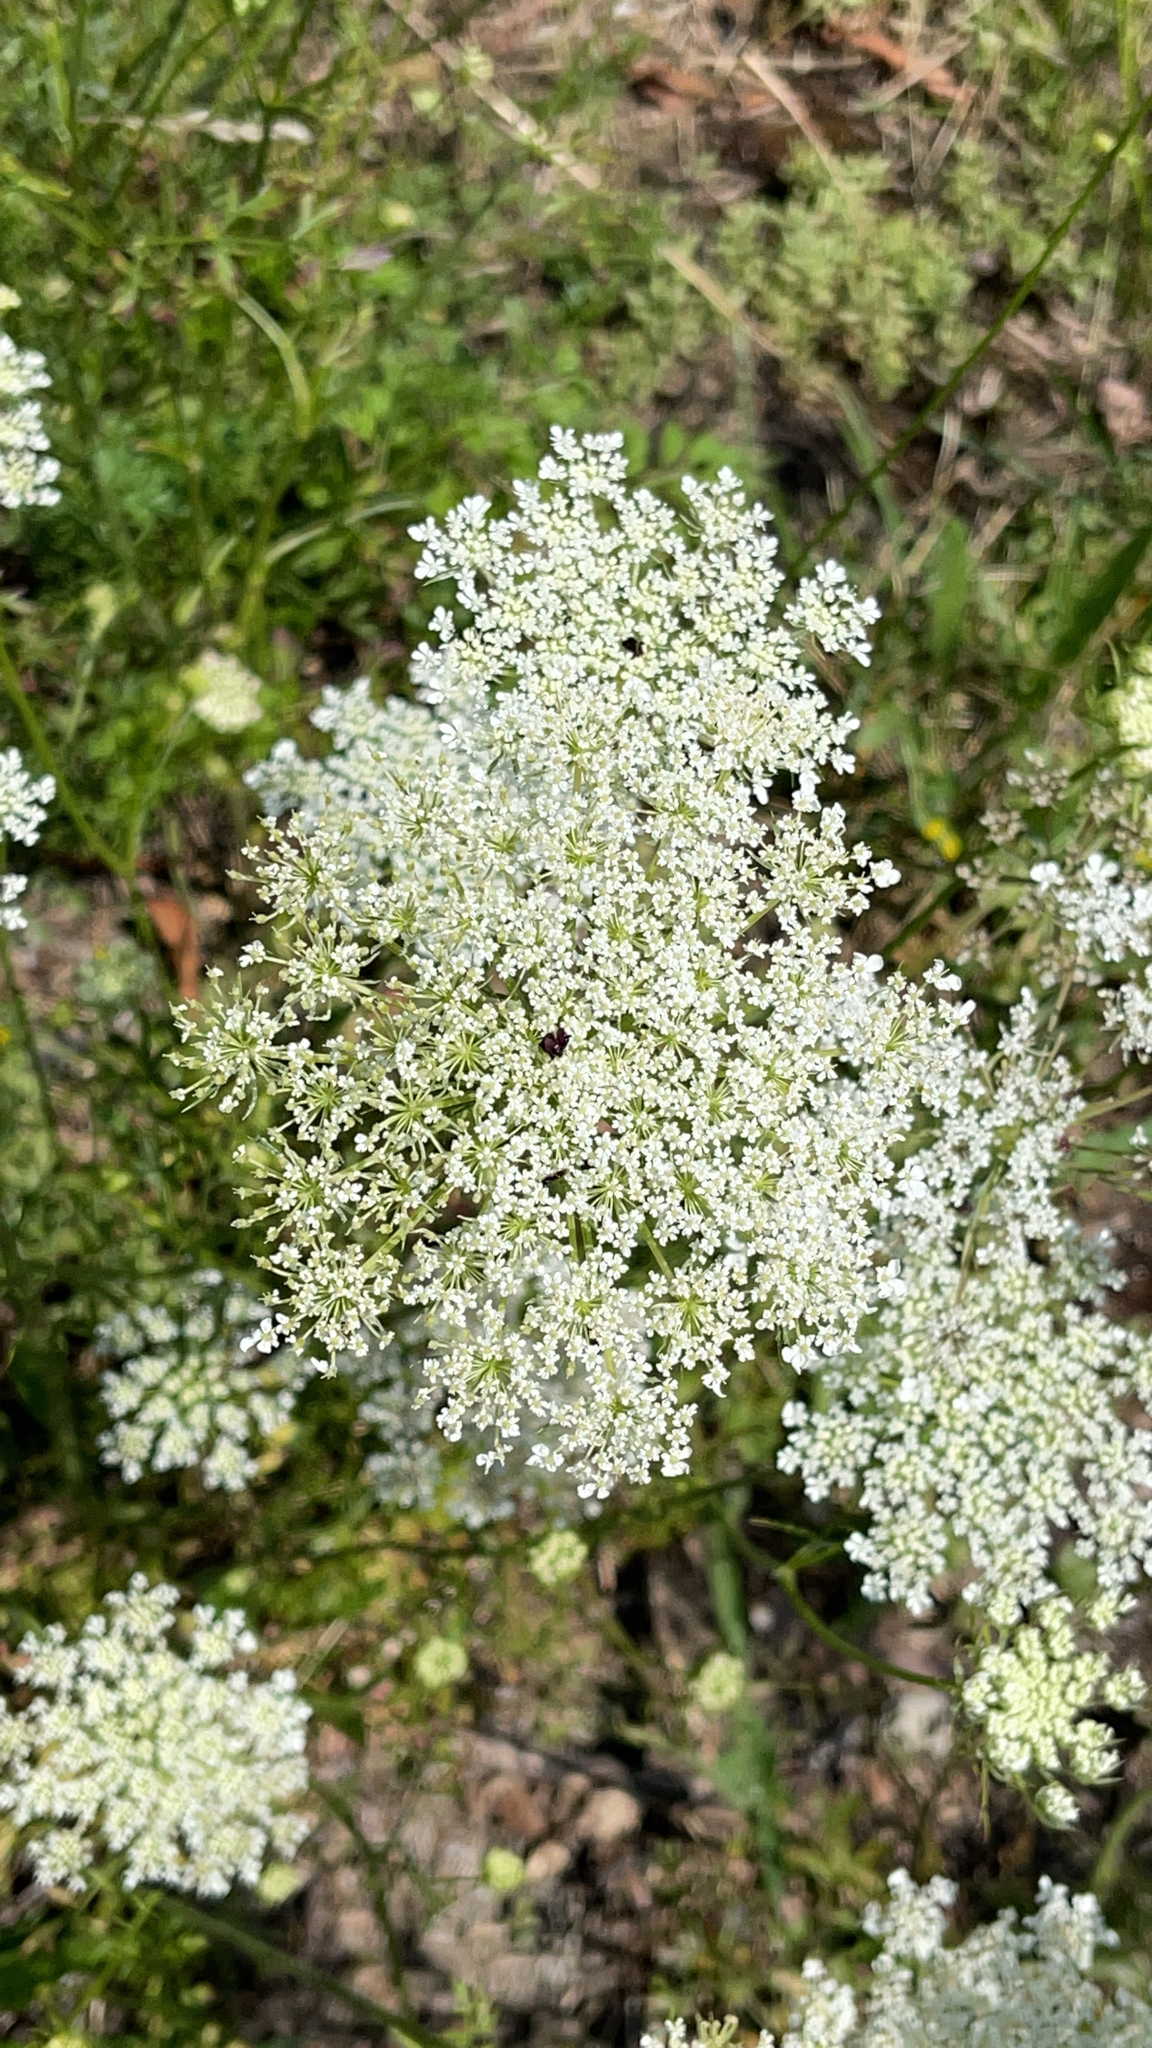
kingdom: Plantae
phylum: Tracheophyta
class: Magnoliopsida
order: Apiales
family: Apiaceae
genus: Daucus
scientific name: Daucus carota
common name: Wild carrot
